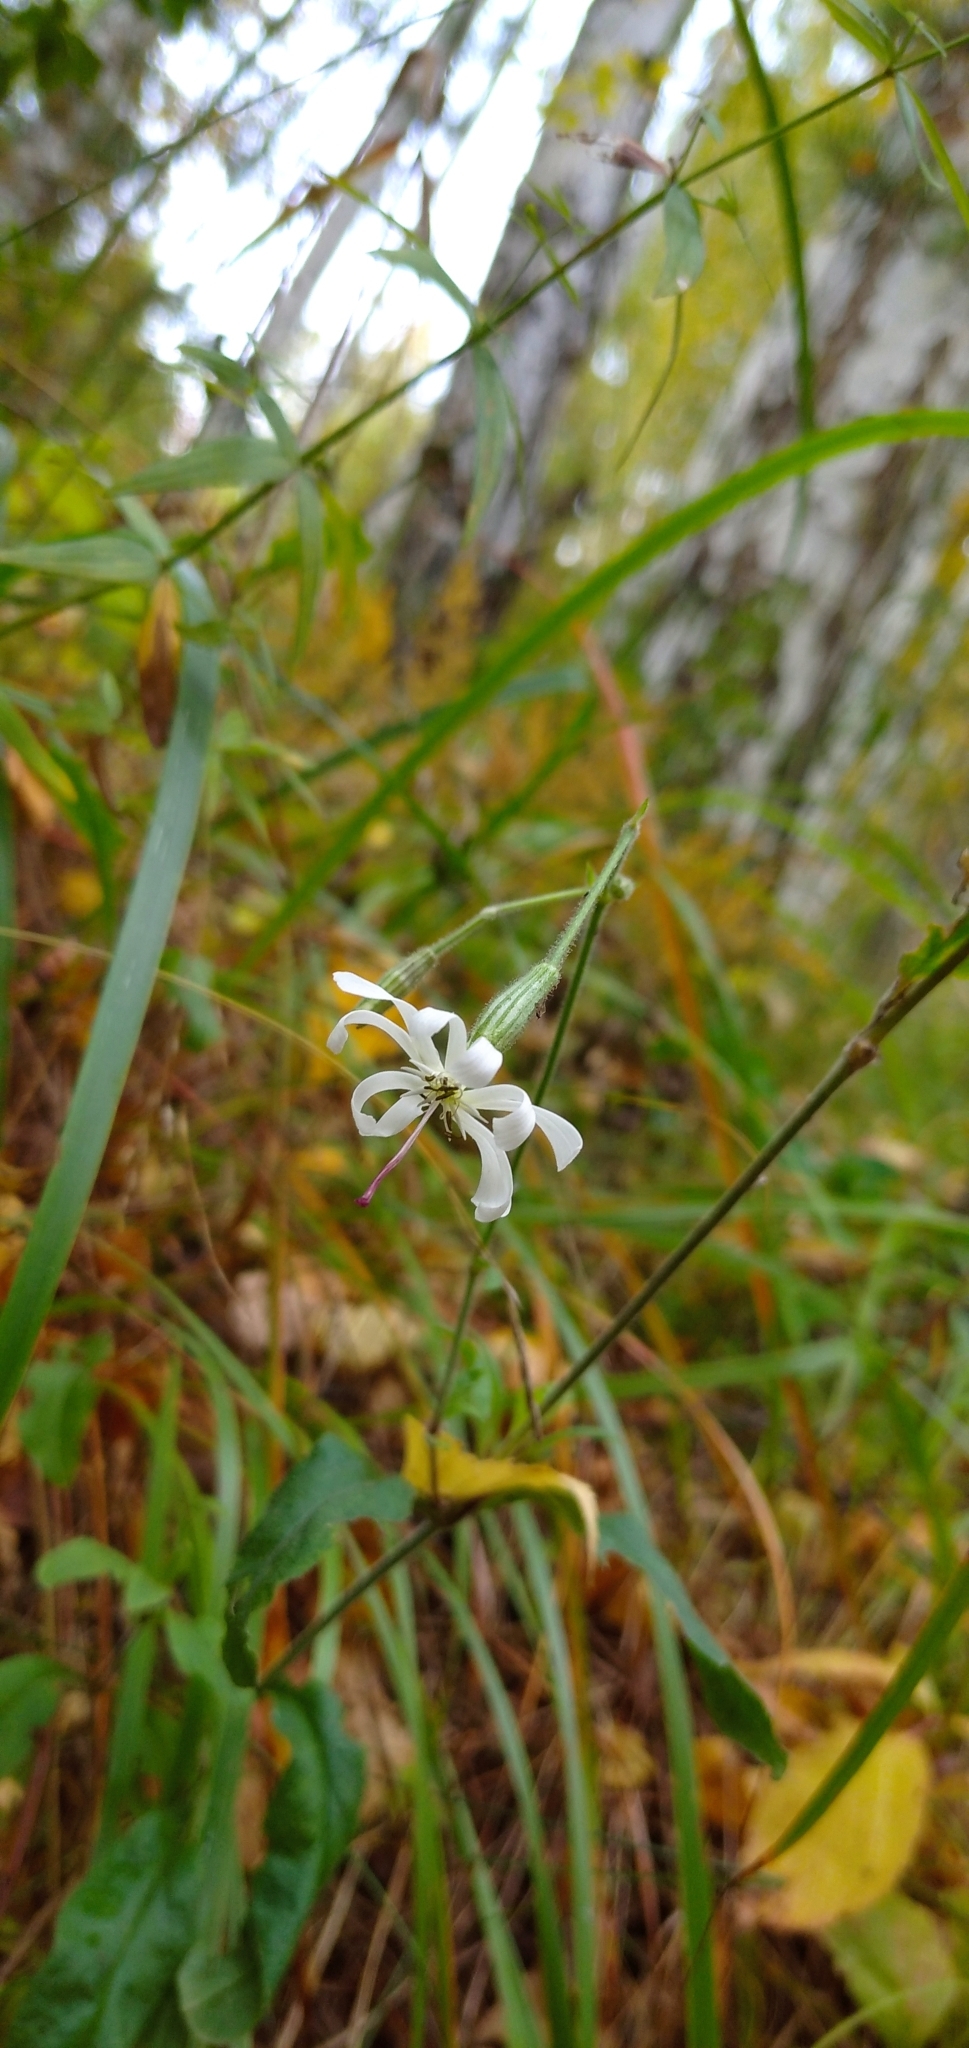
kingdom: Plantae
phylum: Tracheophyta
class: Magnoliopsida
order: Caryophyllales
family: Caryophyllaceae
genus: Silene
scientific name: Silene nutans
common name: Nottingham catchfly
